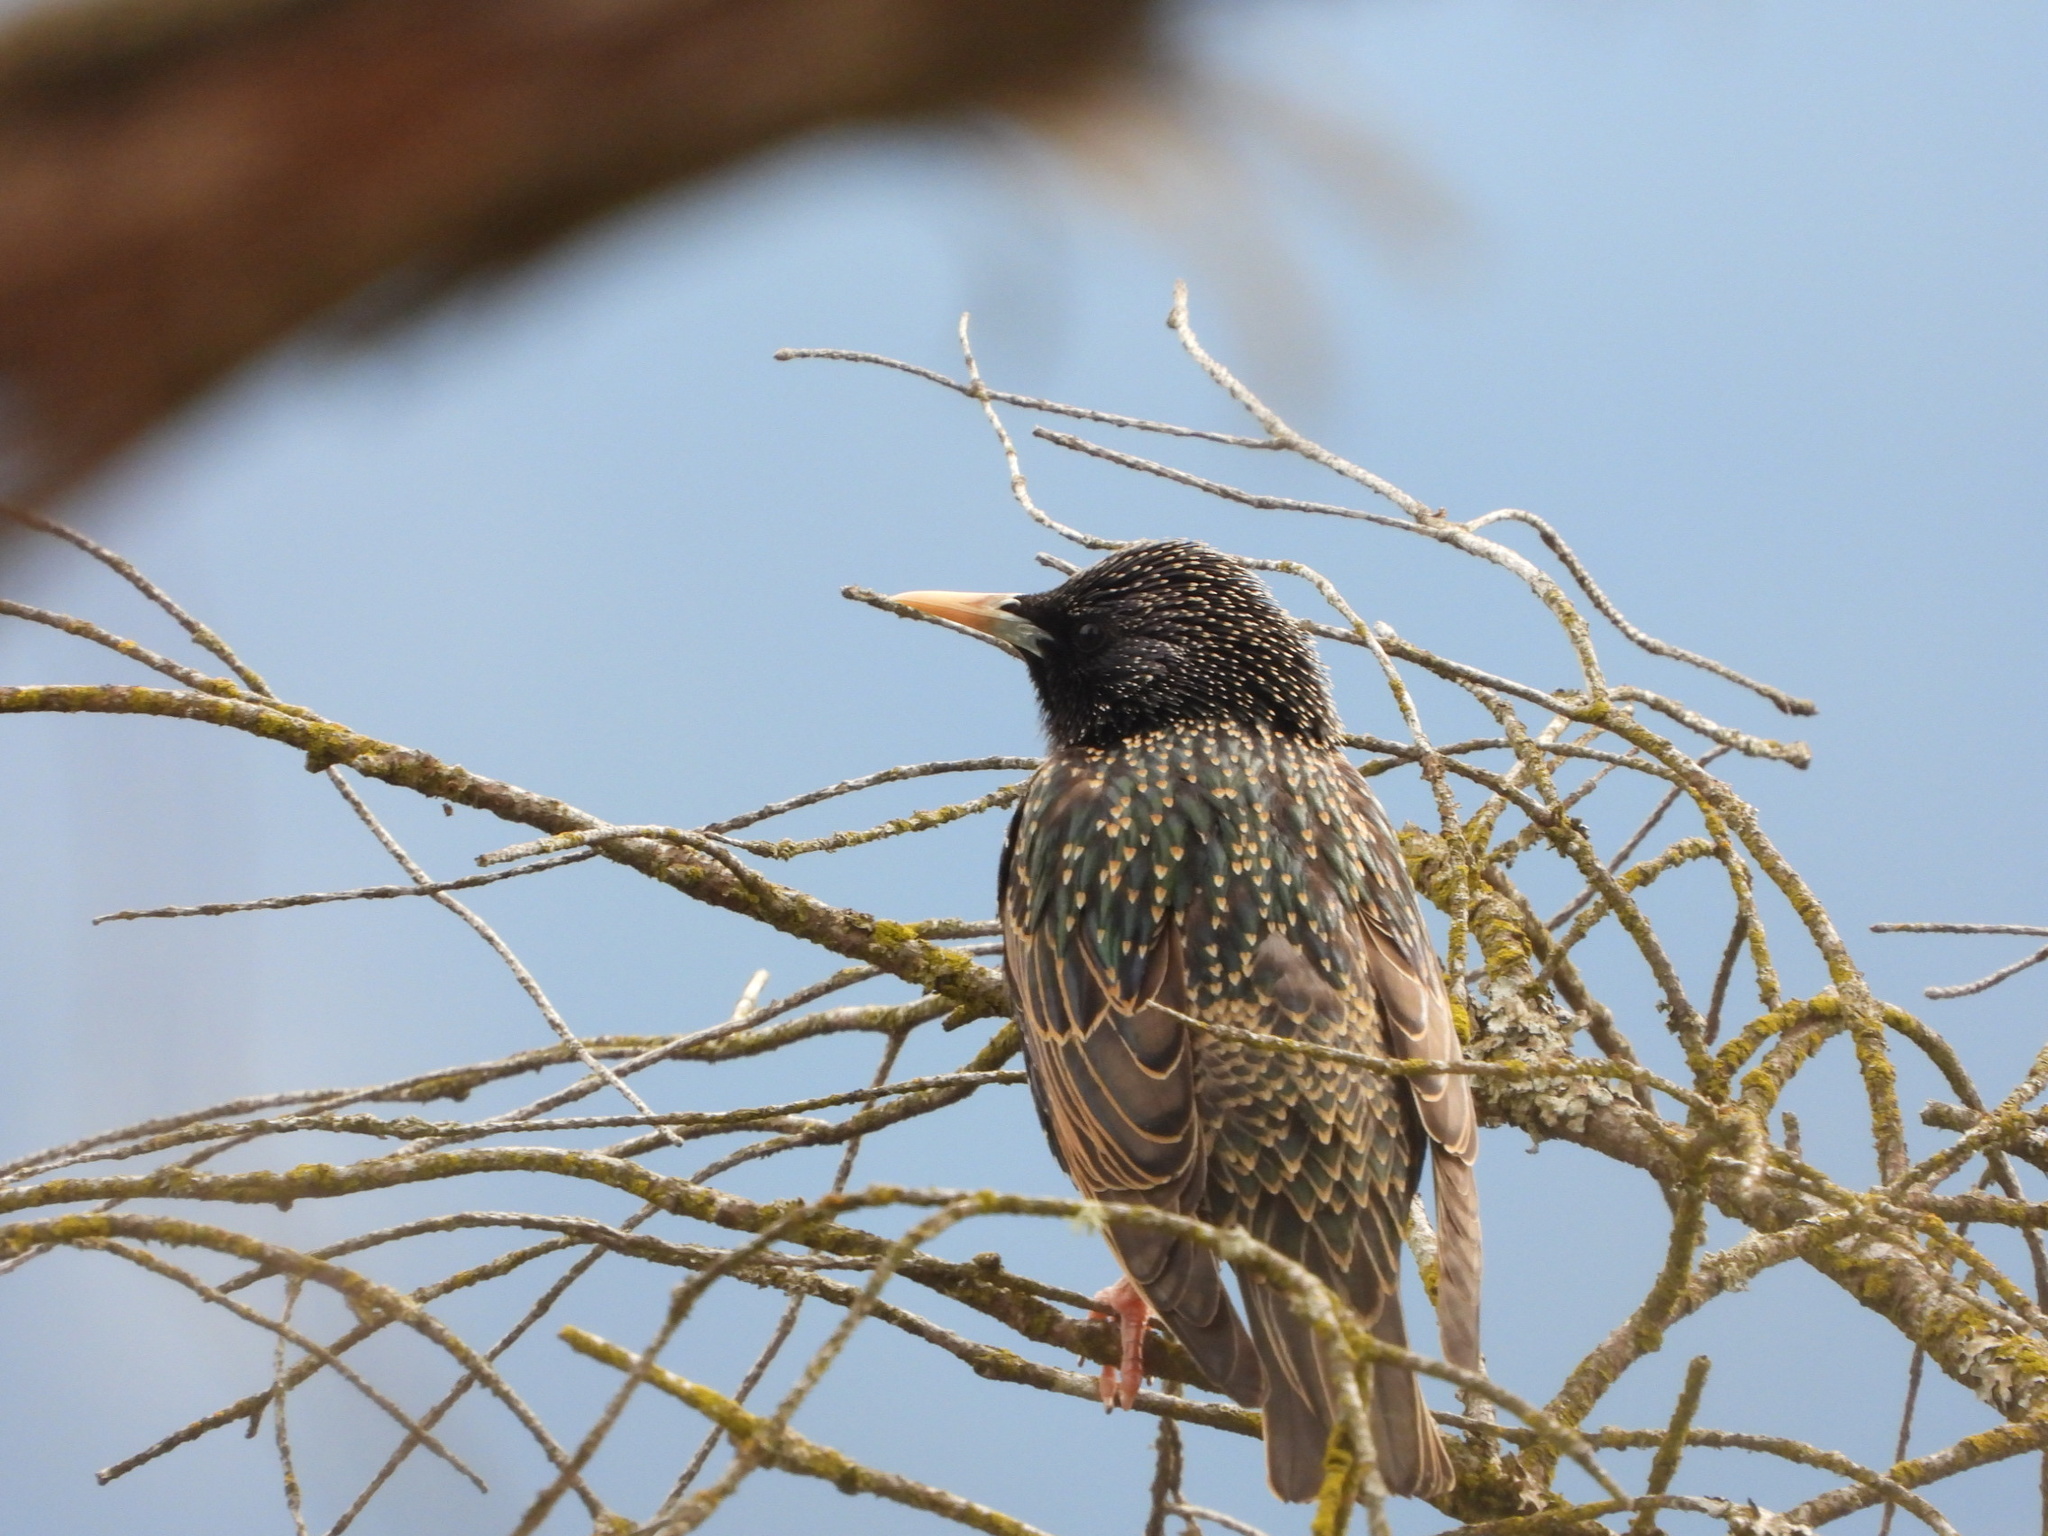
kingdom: Animalia
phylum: Chordata
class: Aves
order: Passeriformes
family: Sturnidae
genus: Sturnus
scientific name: Sturnus vulgaris
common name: Common starling
